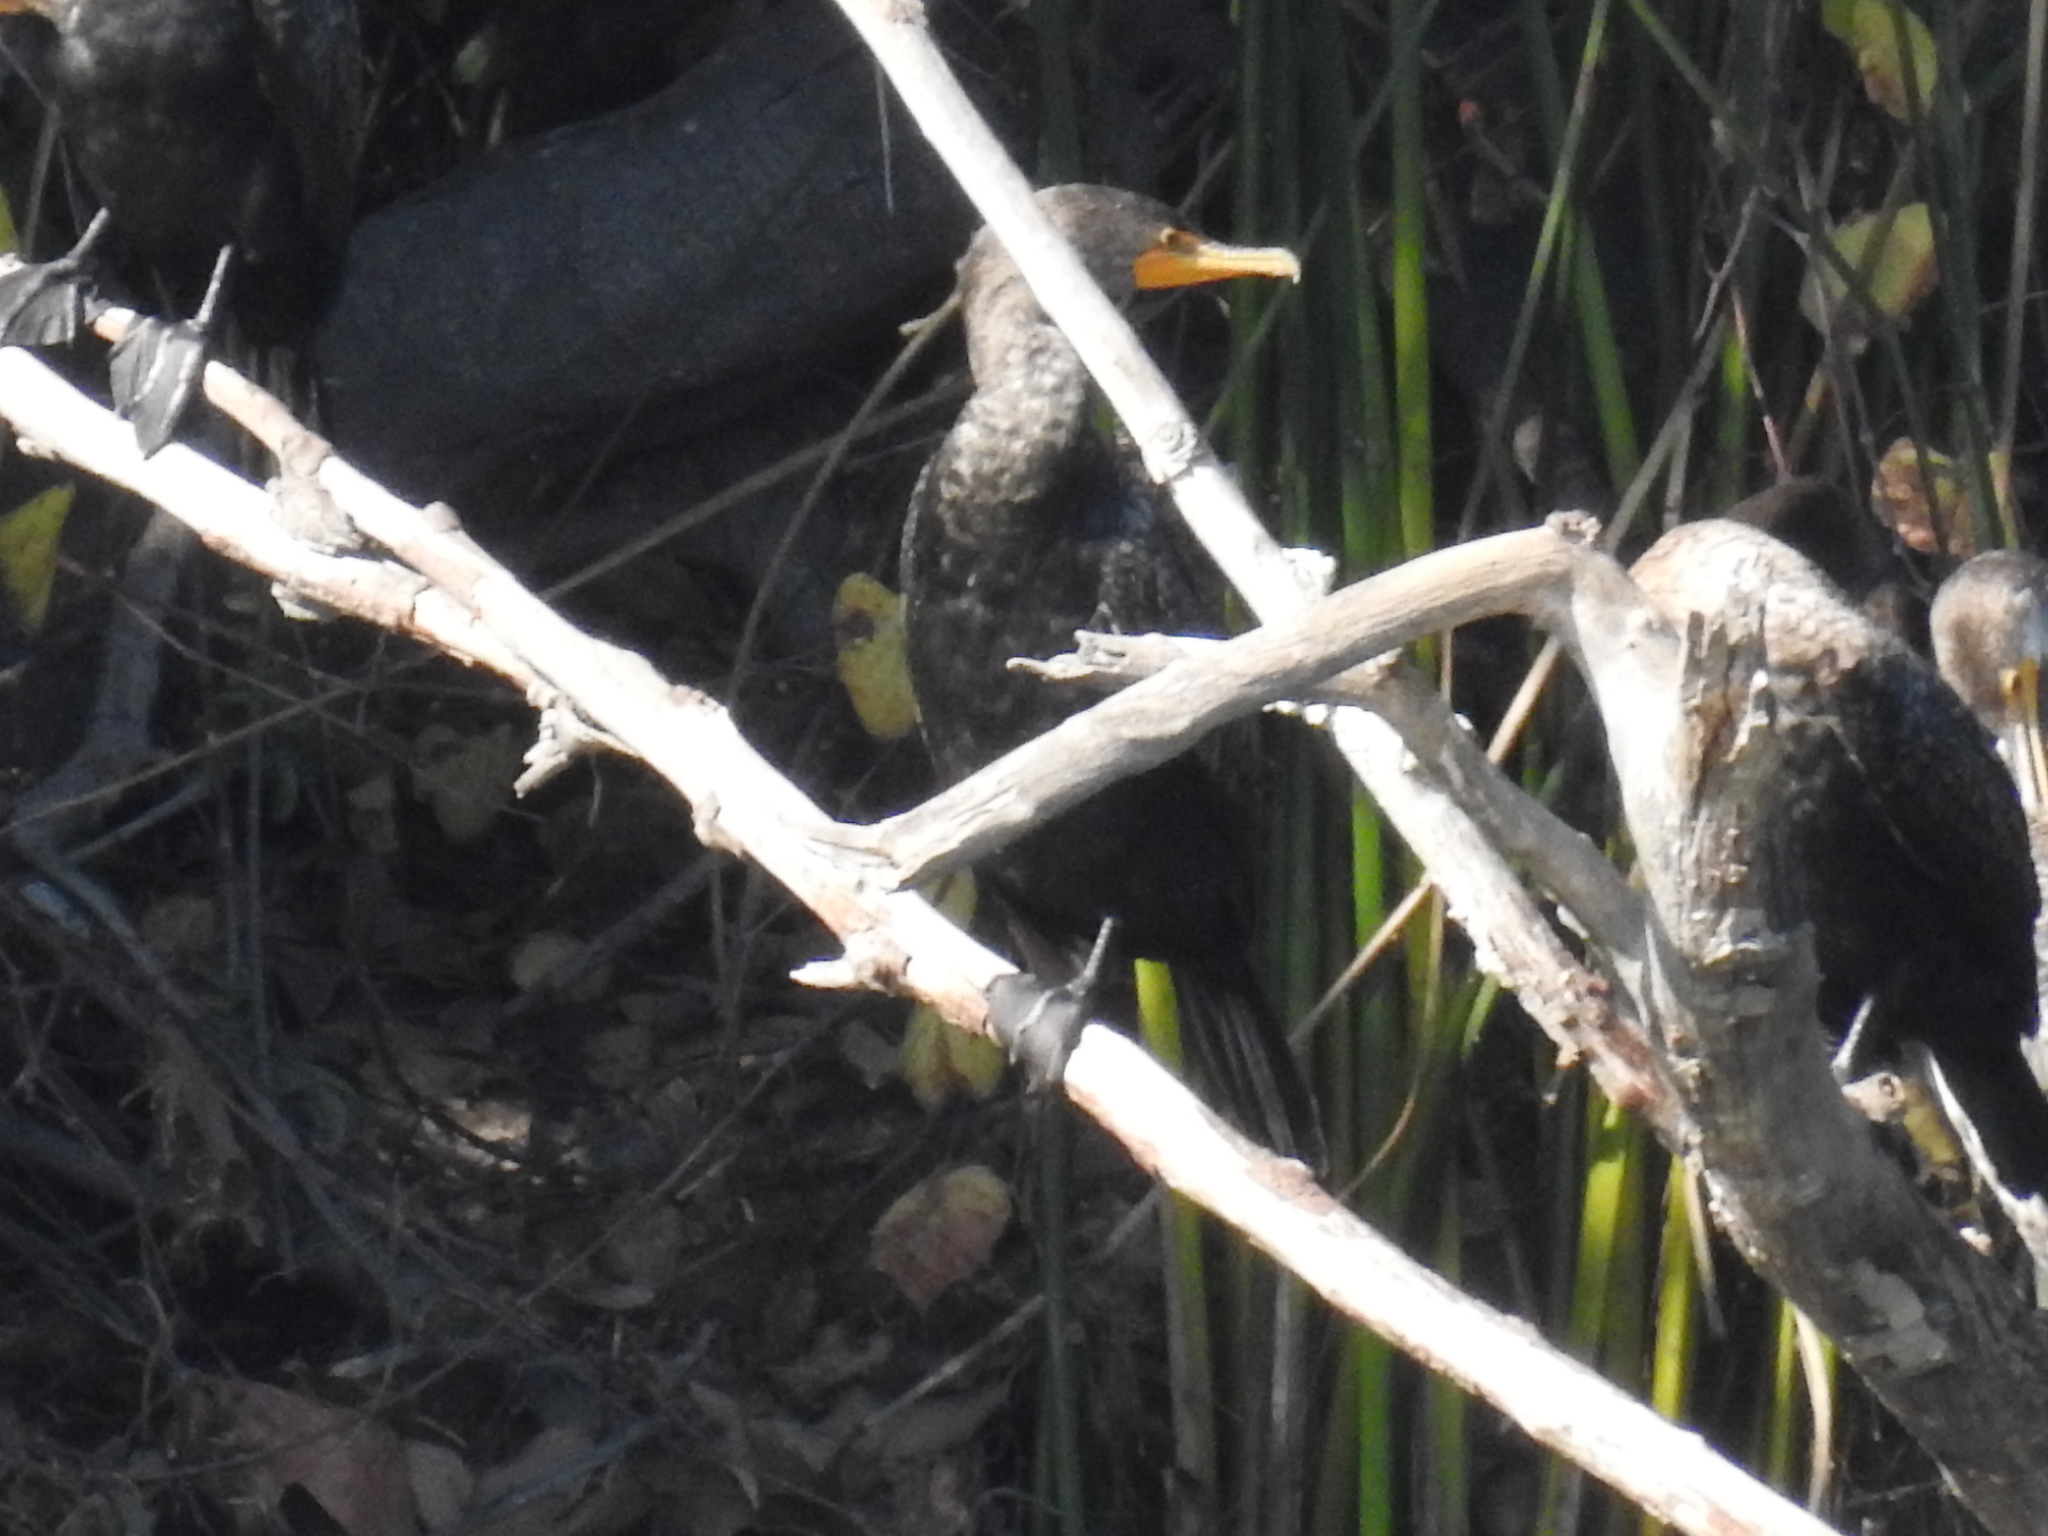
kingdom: Animalia
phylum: Chordata
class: Aves
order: Suliformes
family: Phalacrocoracidae
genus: Phalacrocorax
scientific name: Phalacrocorax auritus
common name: Double-crested cormorant
